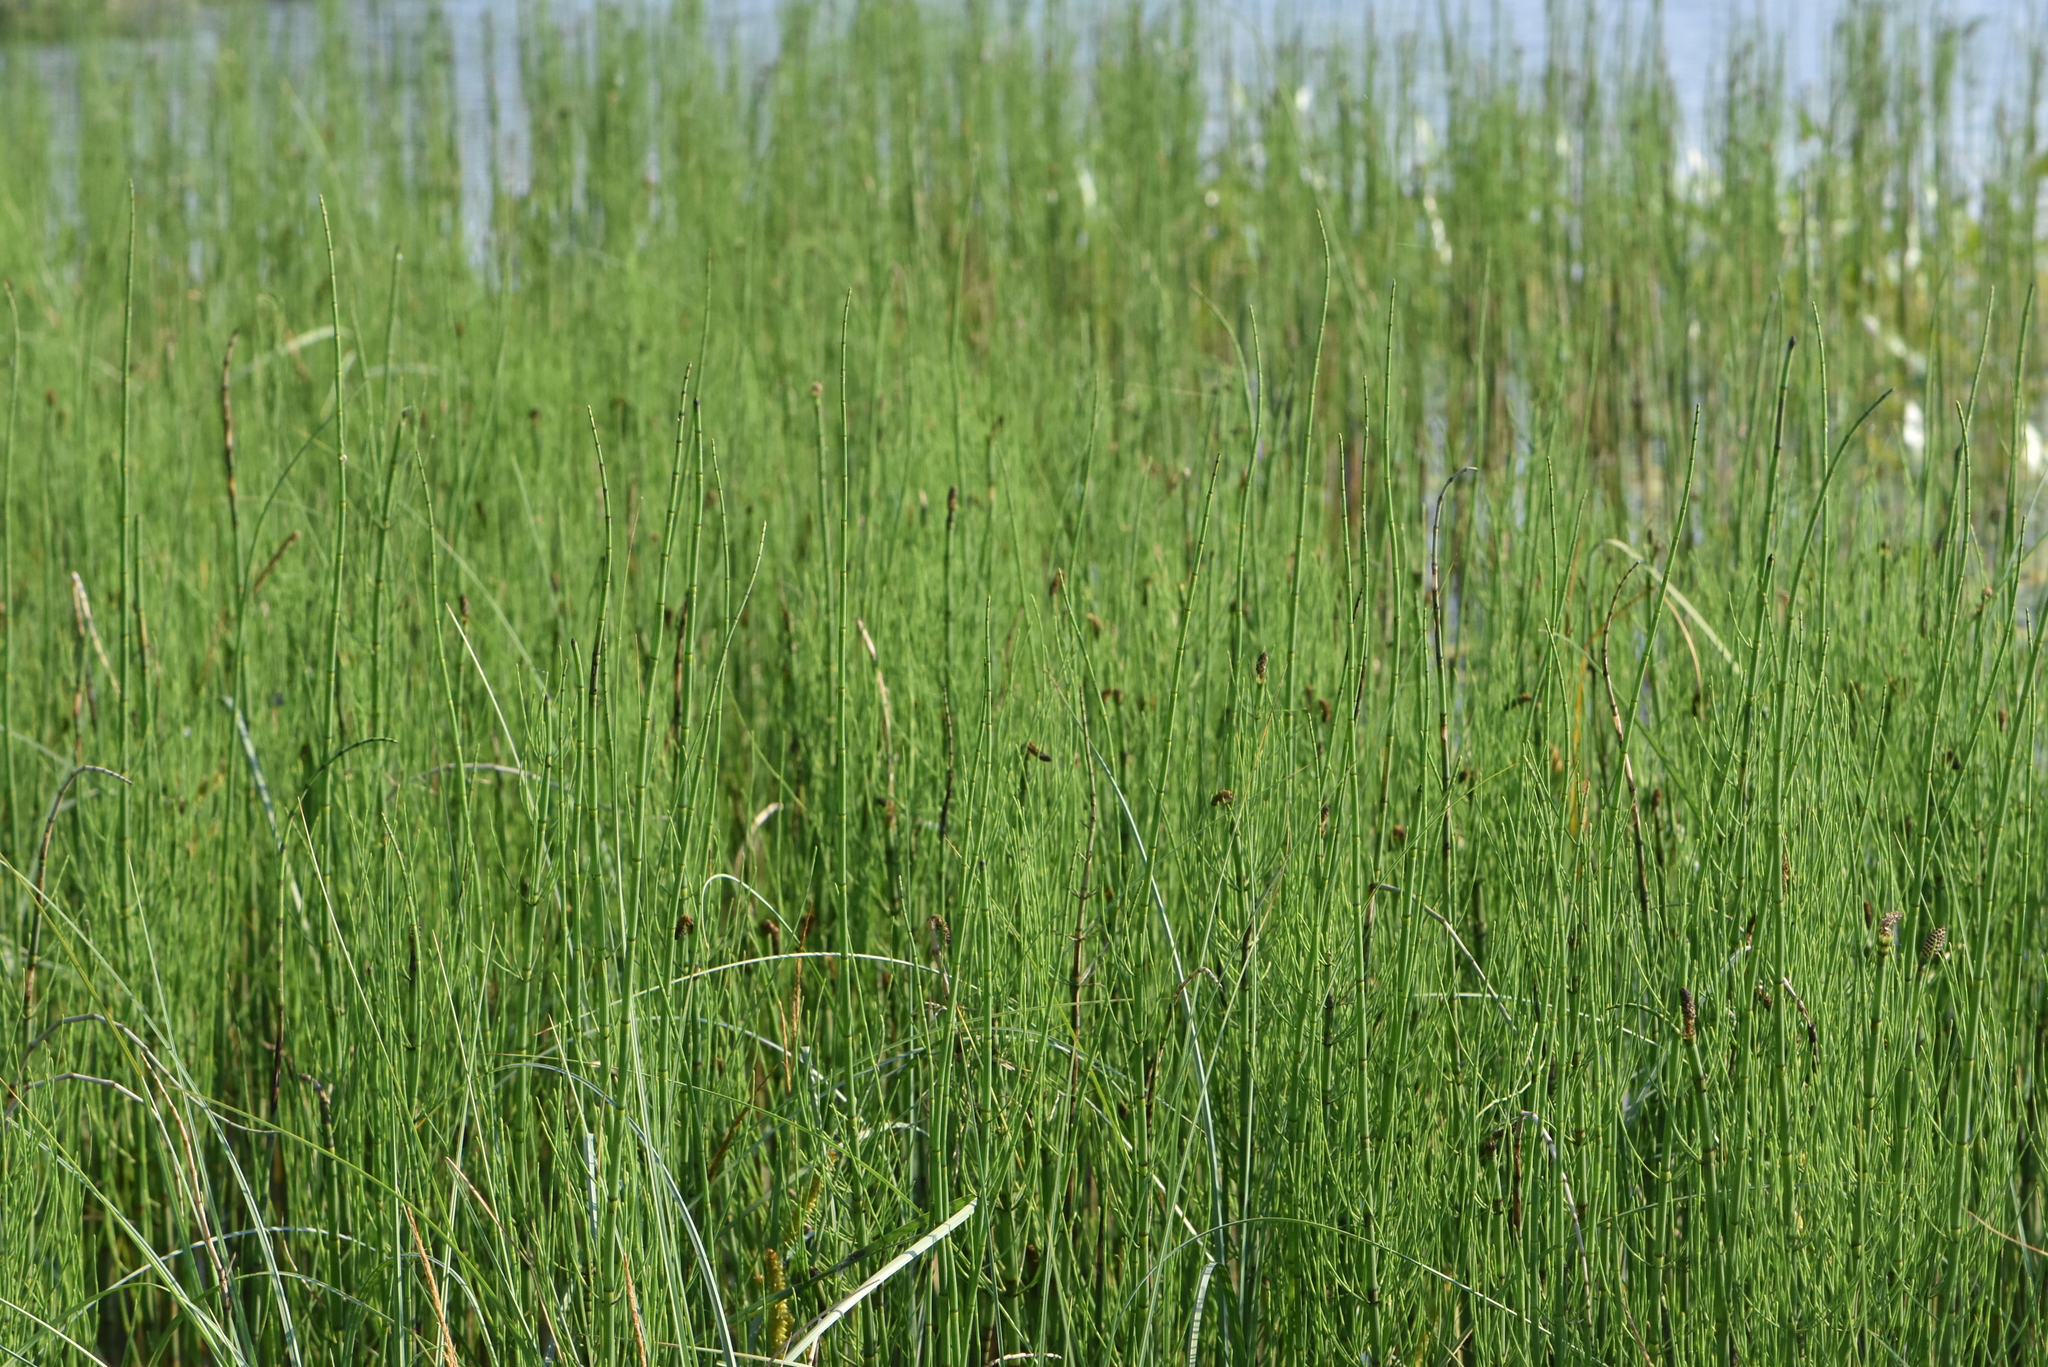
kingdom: Plantae
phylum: Tracheophyta
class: Polypodiopsida
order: Equisetales
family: Equisetaceae
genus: Equisetum
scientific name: Equisetum fluviatile
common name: Water horsetail
